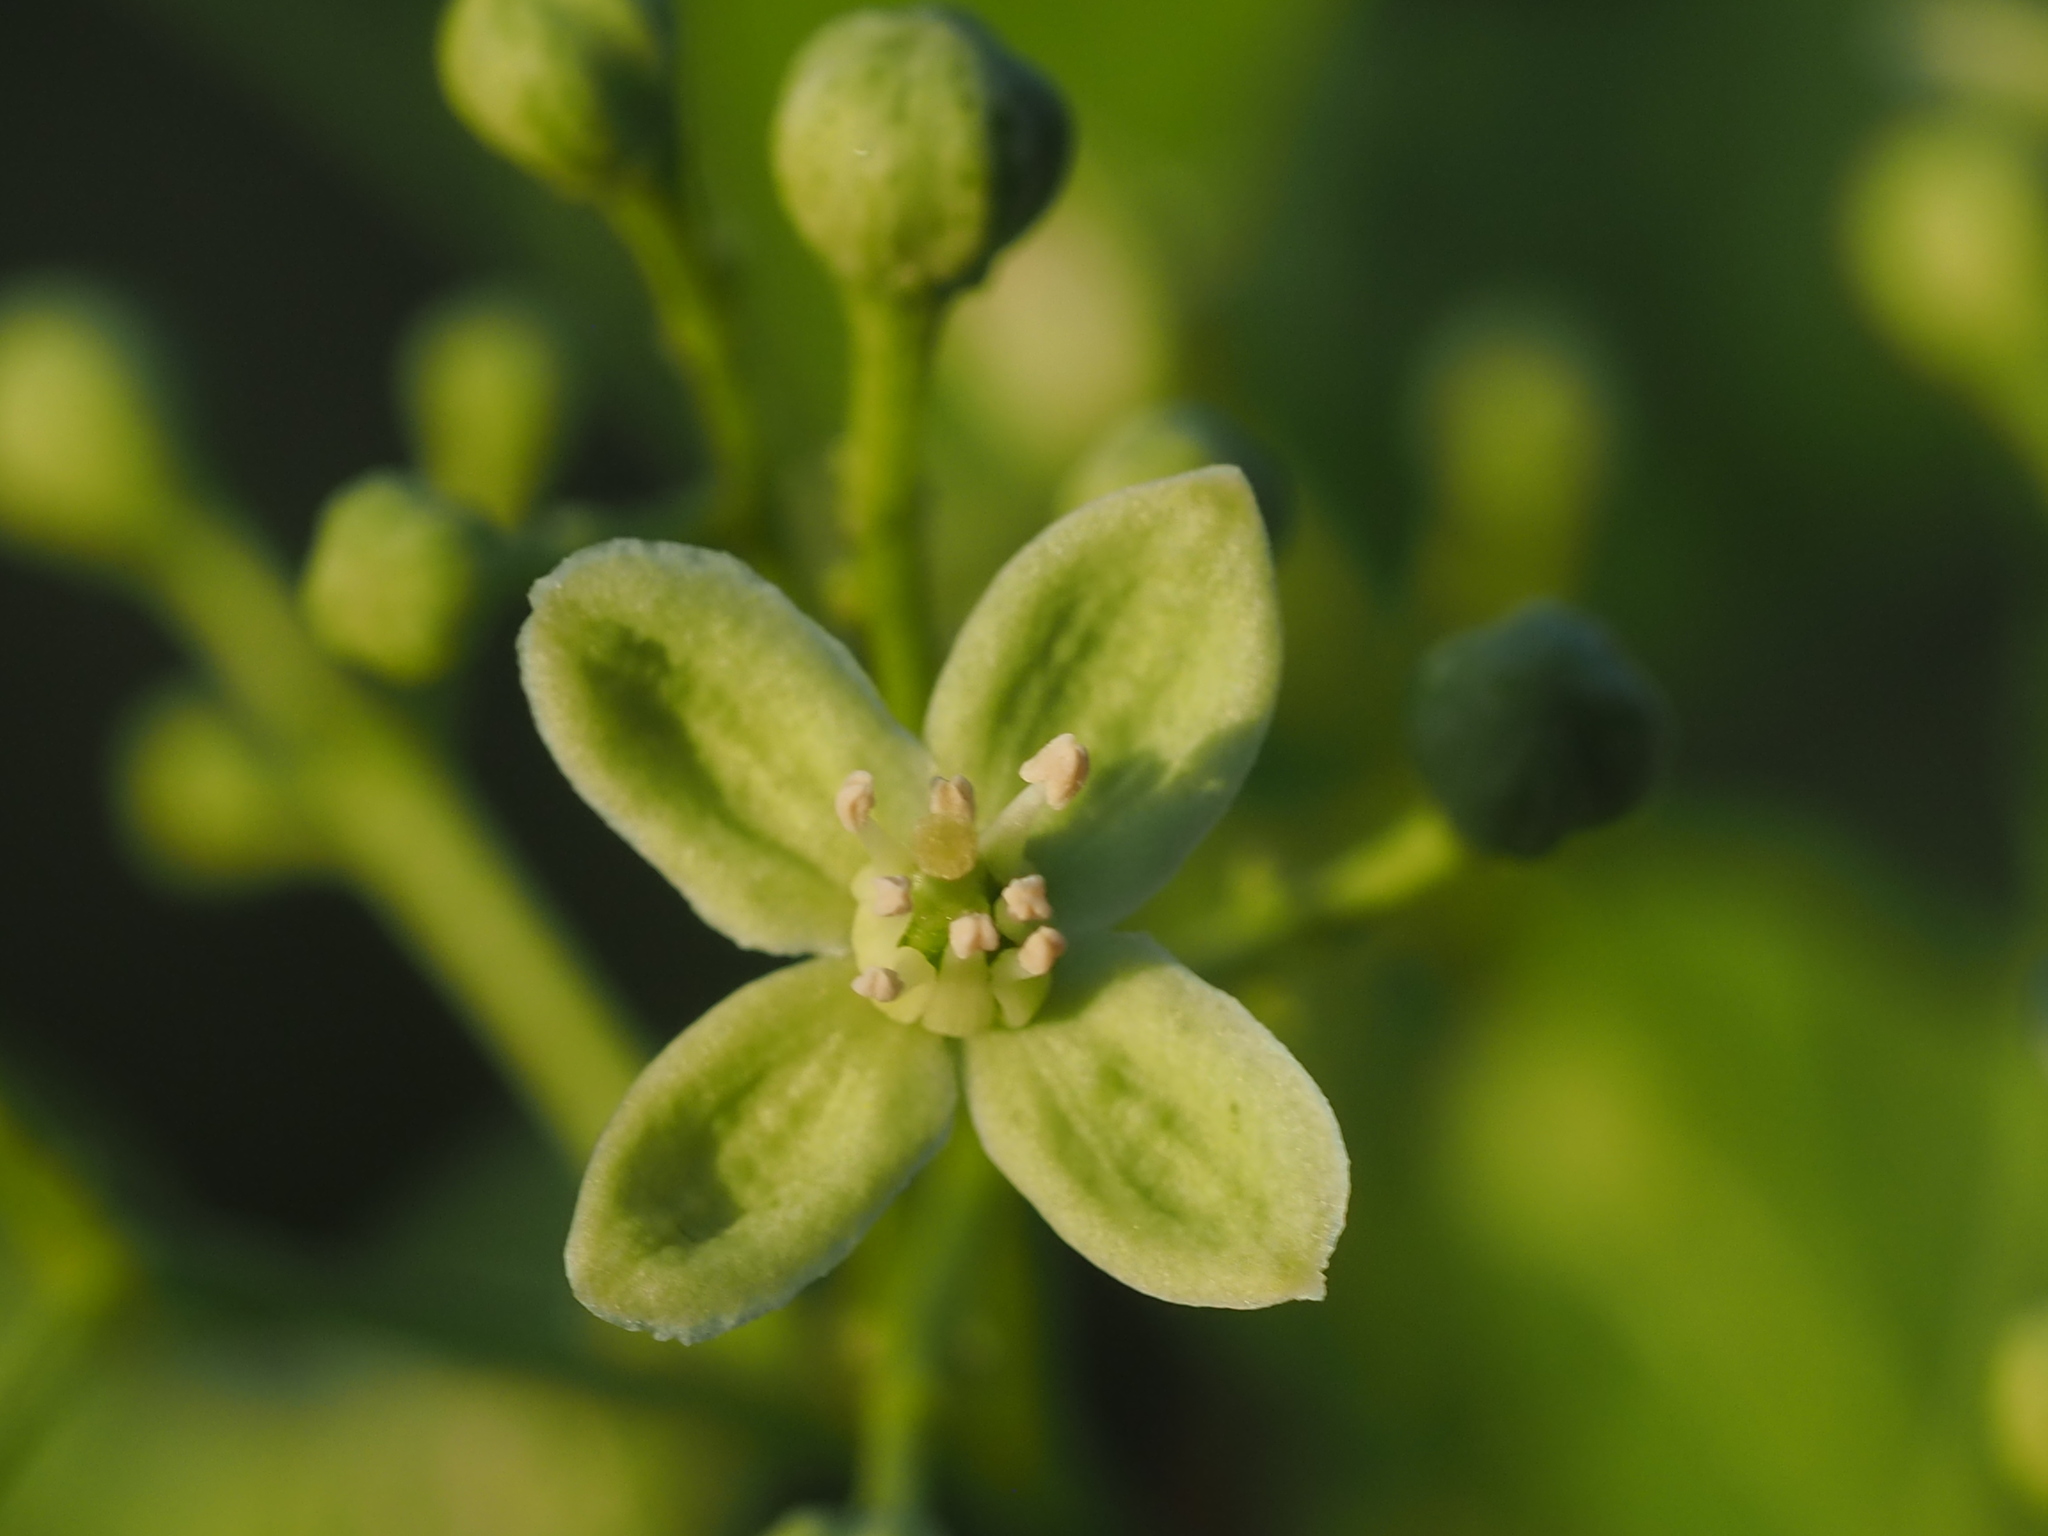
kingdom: Plantae
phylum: Tracheophyta
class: Magnoliopsida
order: Sapindales
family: Rutaceae
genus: Clausena
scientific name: Clausena excavata
